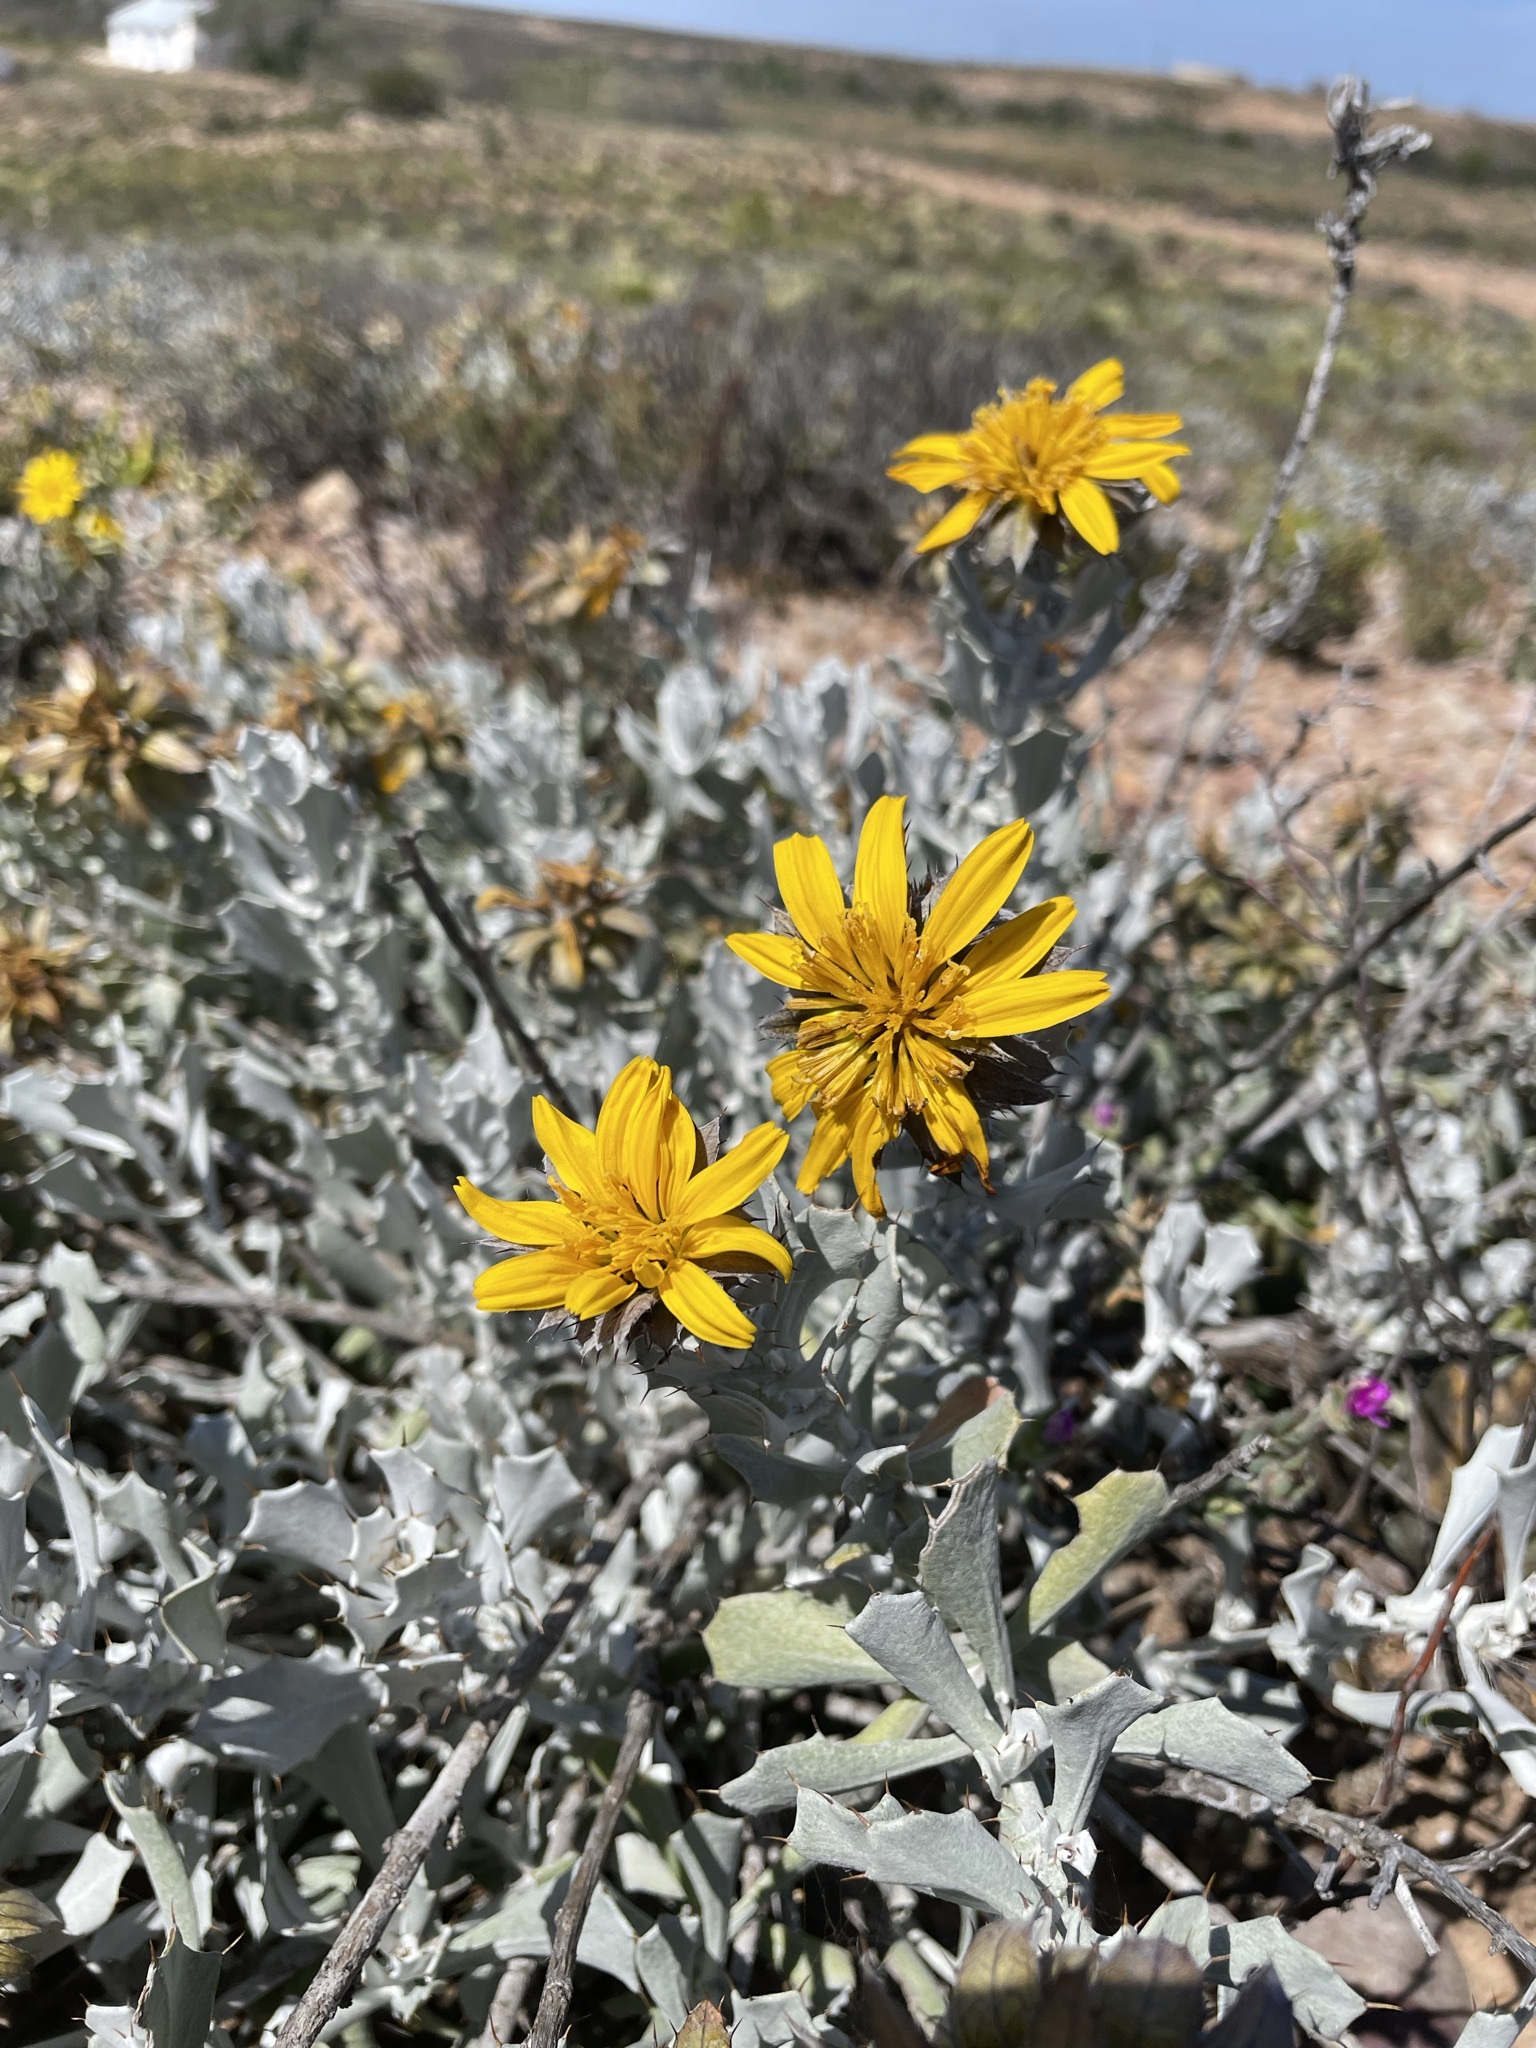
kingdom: Plantae
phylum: Tracheophyta
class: Magnoliopsida
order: Asterales
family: Asteraceae
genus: Berkheya
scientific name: Berkheya cuneata
